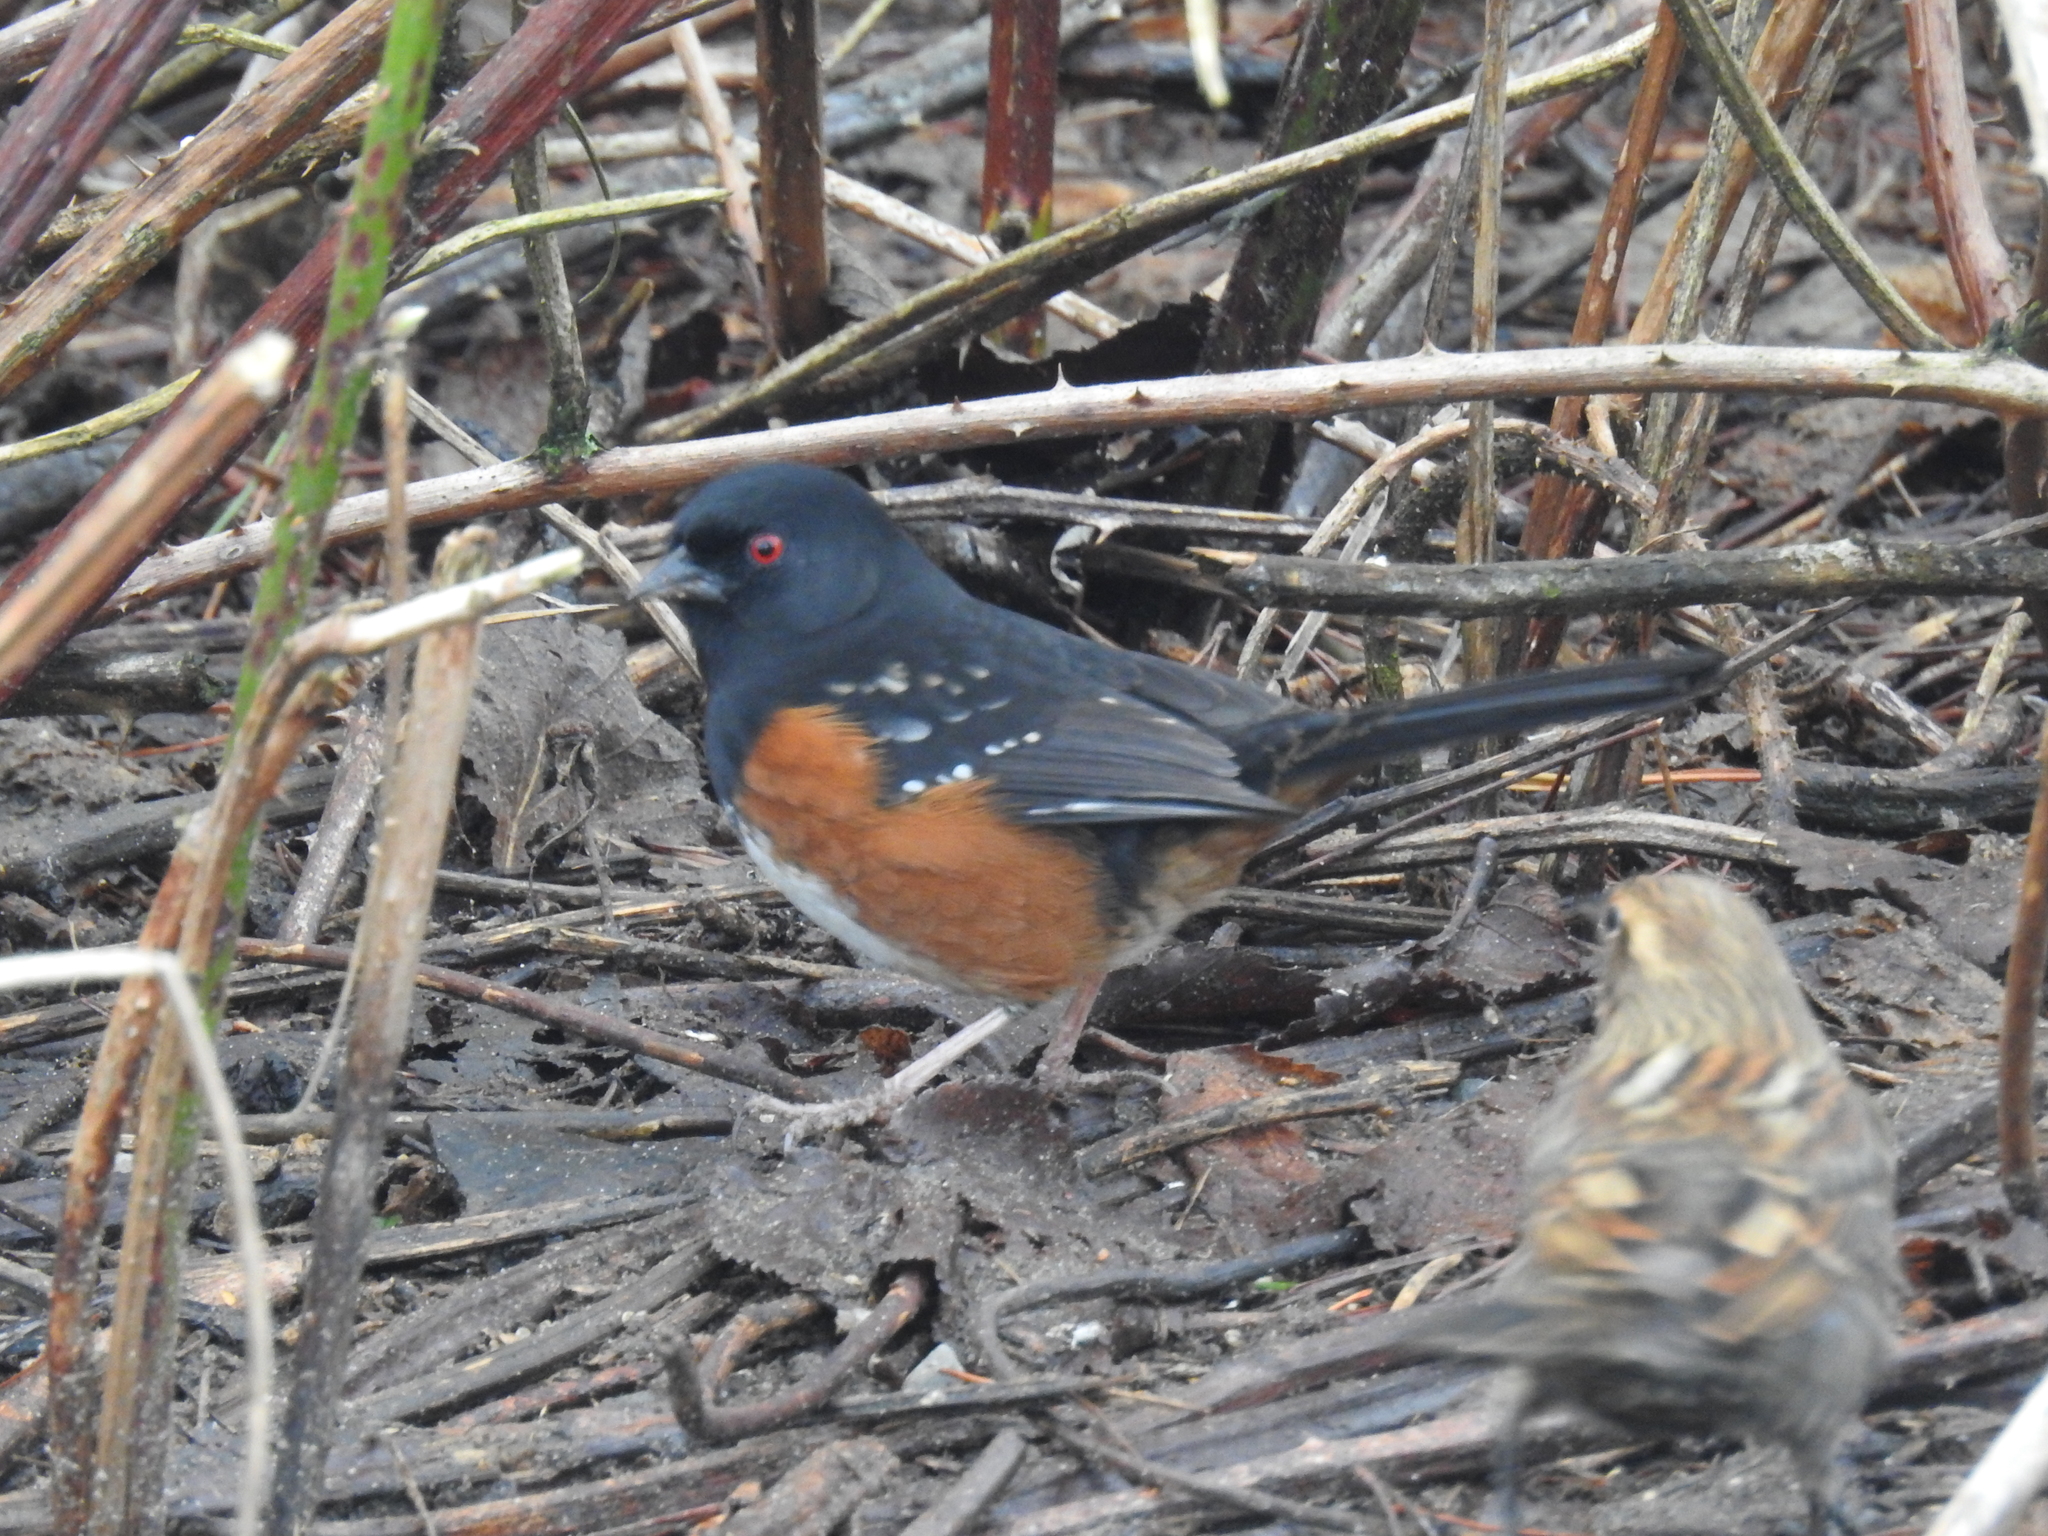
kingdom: Animalia
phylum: Chordata
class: Aves
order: Passeriformes
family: Passerellidae
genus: Pipilo
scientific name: Pipilo maculatus
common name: Spotted towhee
